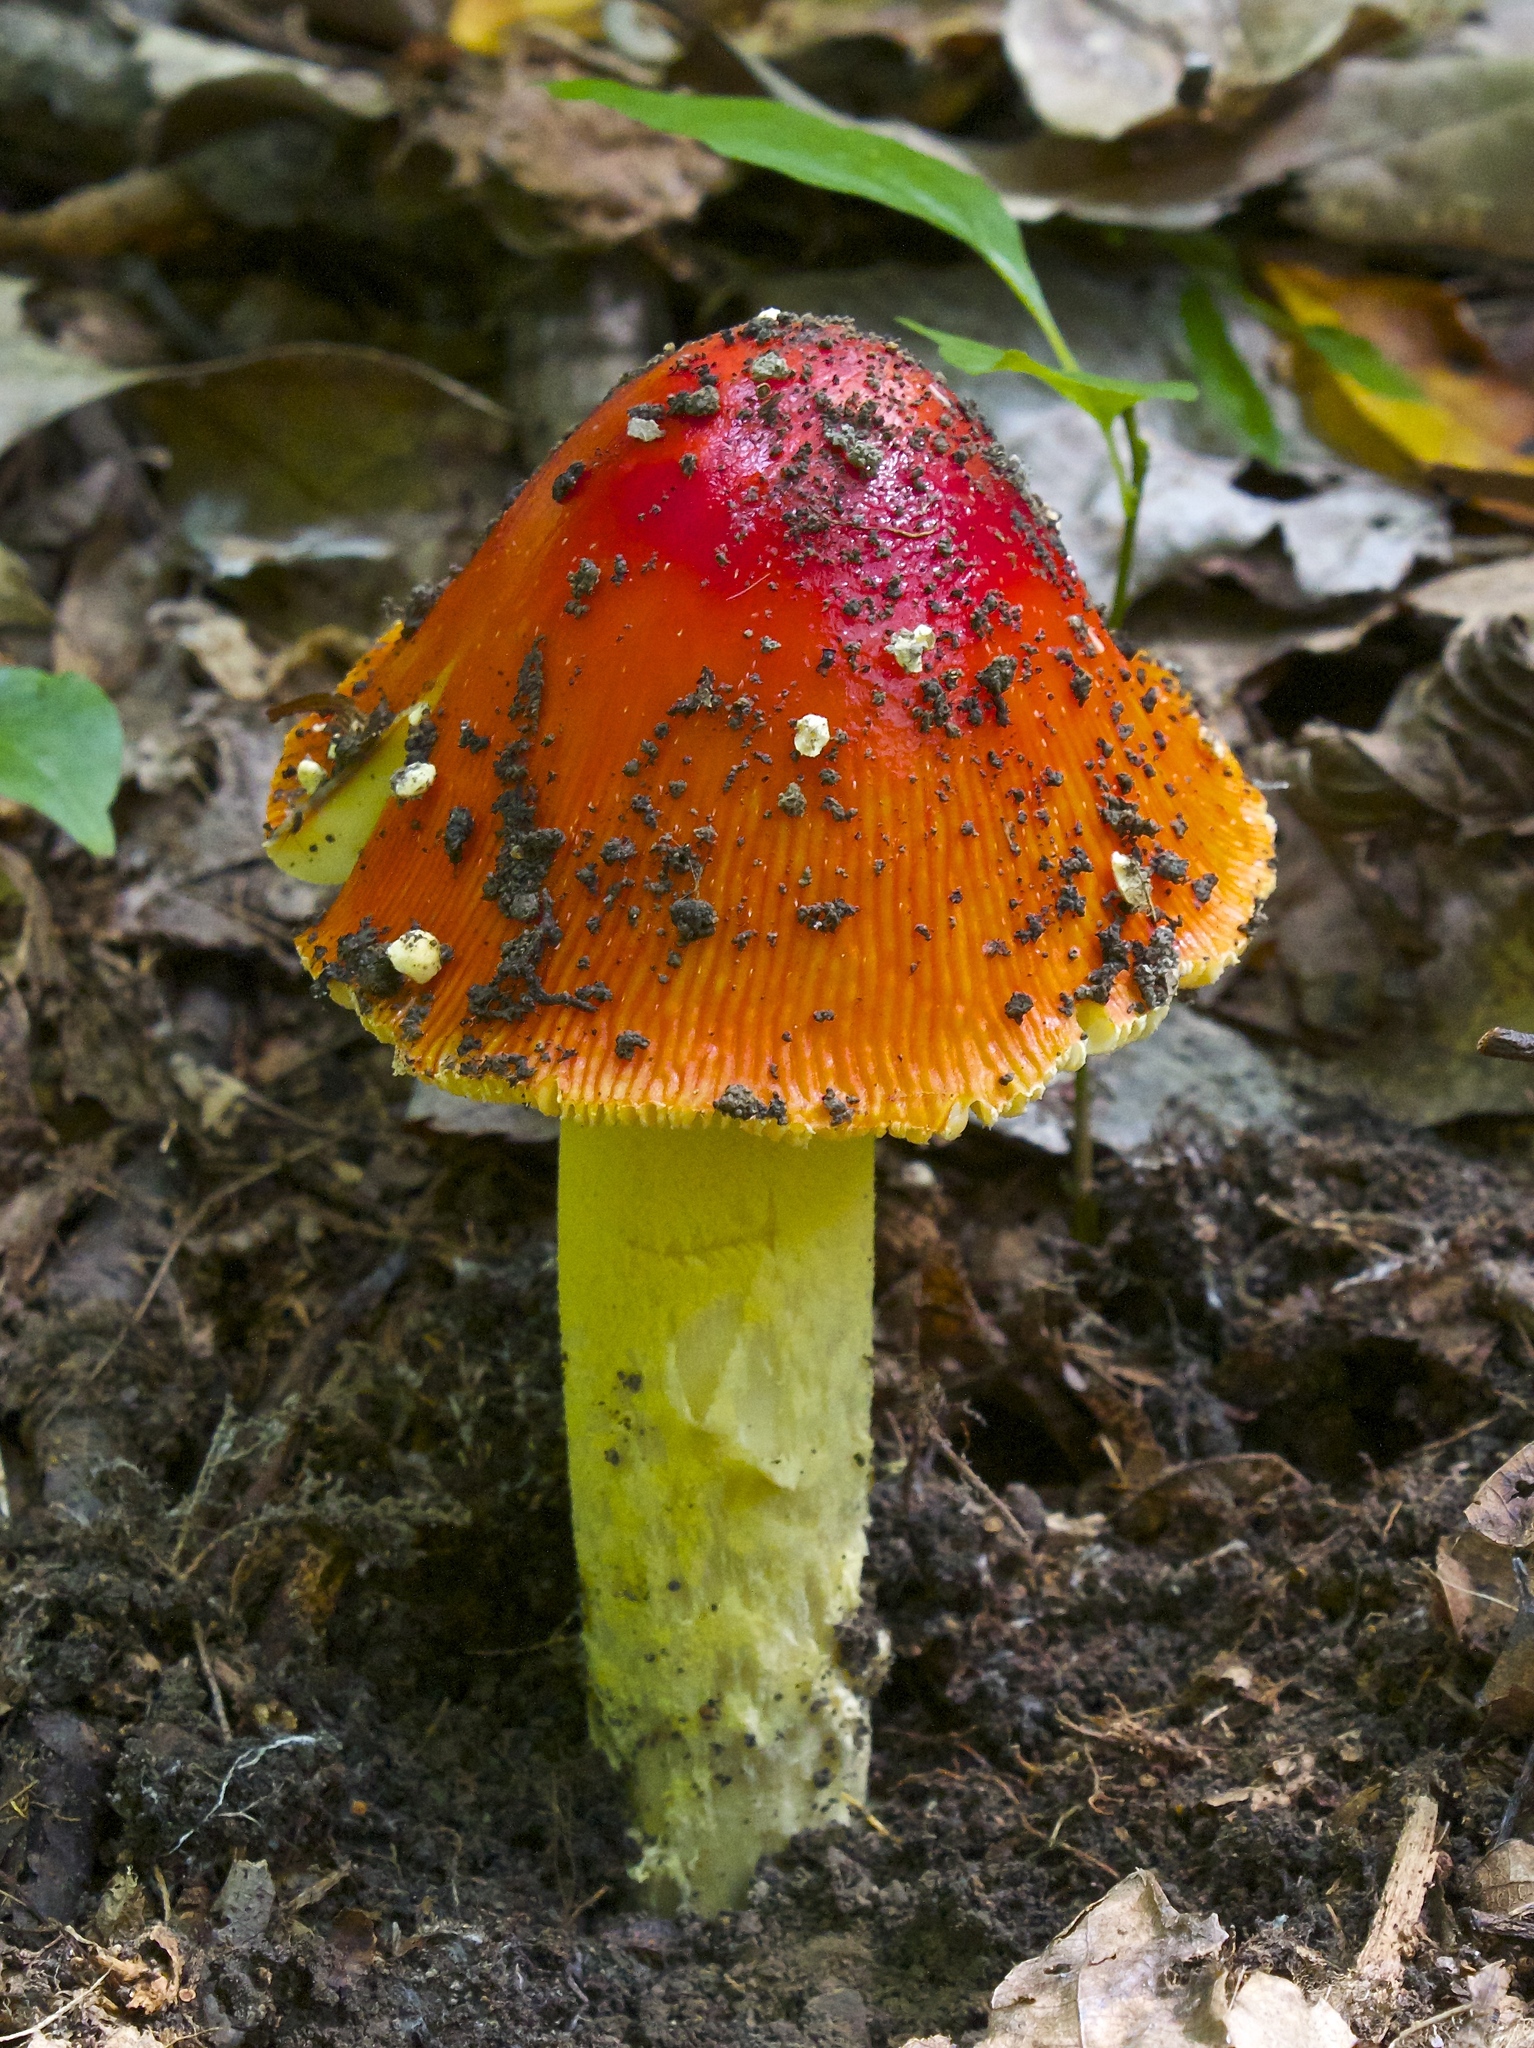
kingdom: Fungi
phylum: Basidiomycota
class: Agaricomycetes
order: Agaricales
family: Amanitaceae
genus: Amanita
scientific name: Amanita parcivolvata
